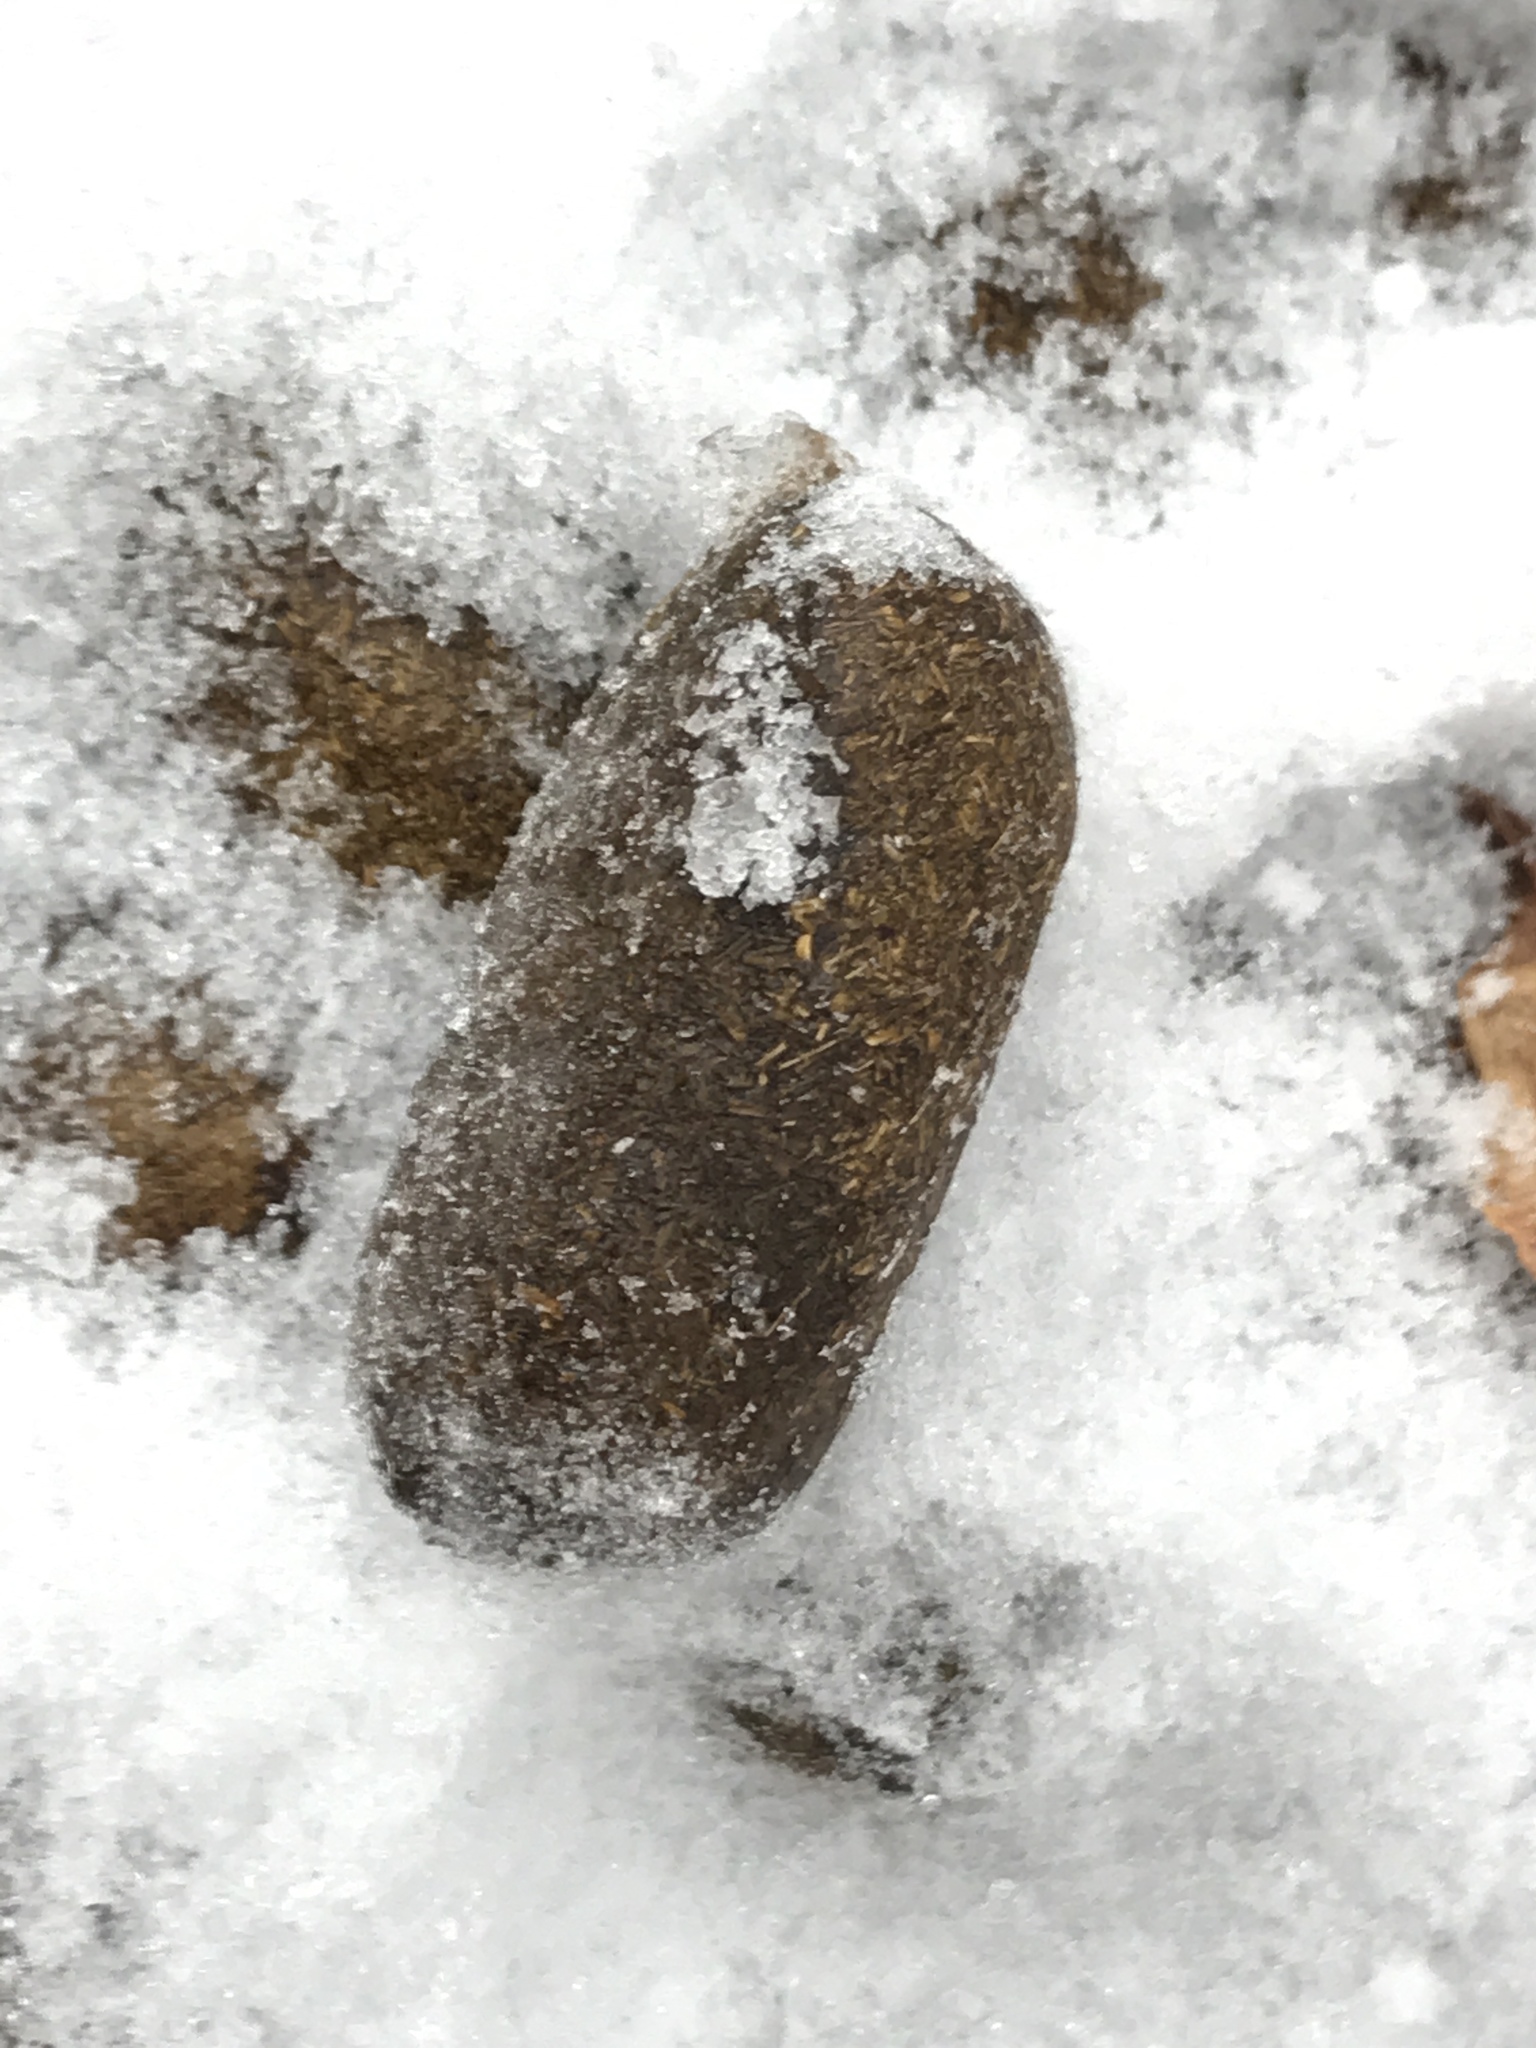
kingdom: Animalia
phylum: Chordata
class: Mammalia
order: Artiodactyla
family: Cervidae
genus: Alces
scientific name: Alces alces
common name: Moose
